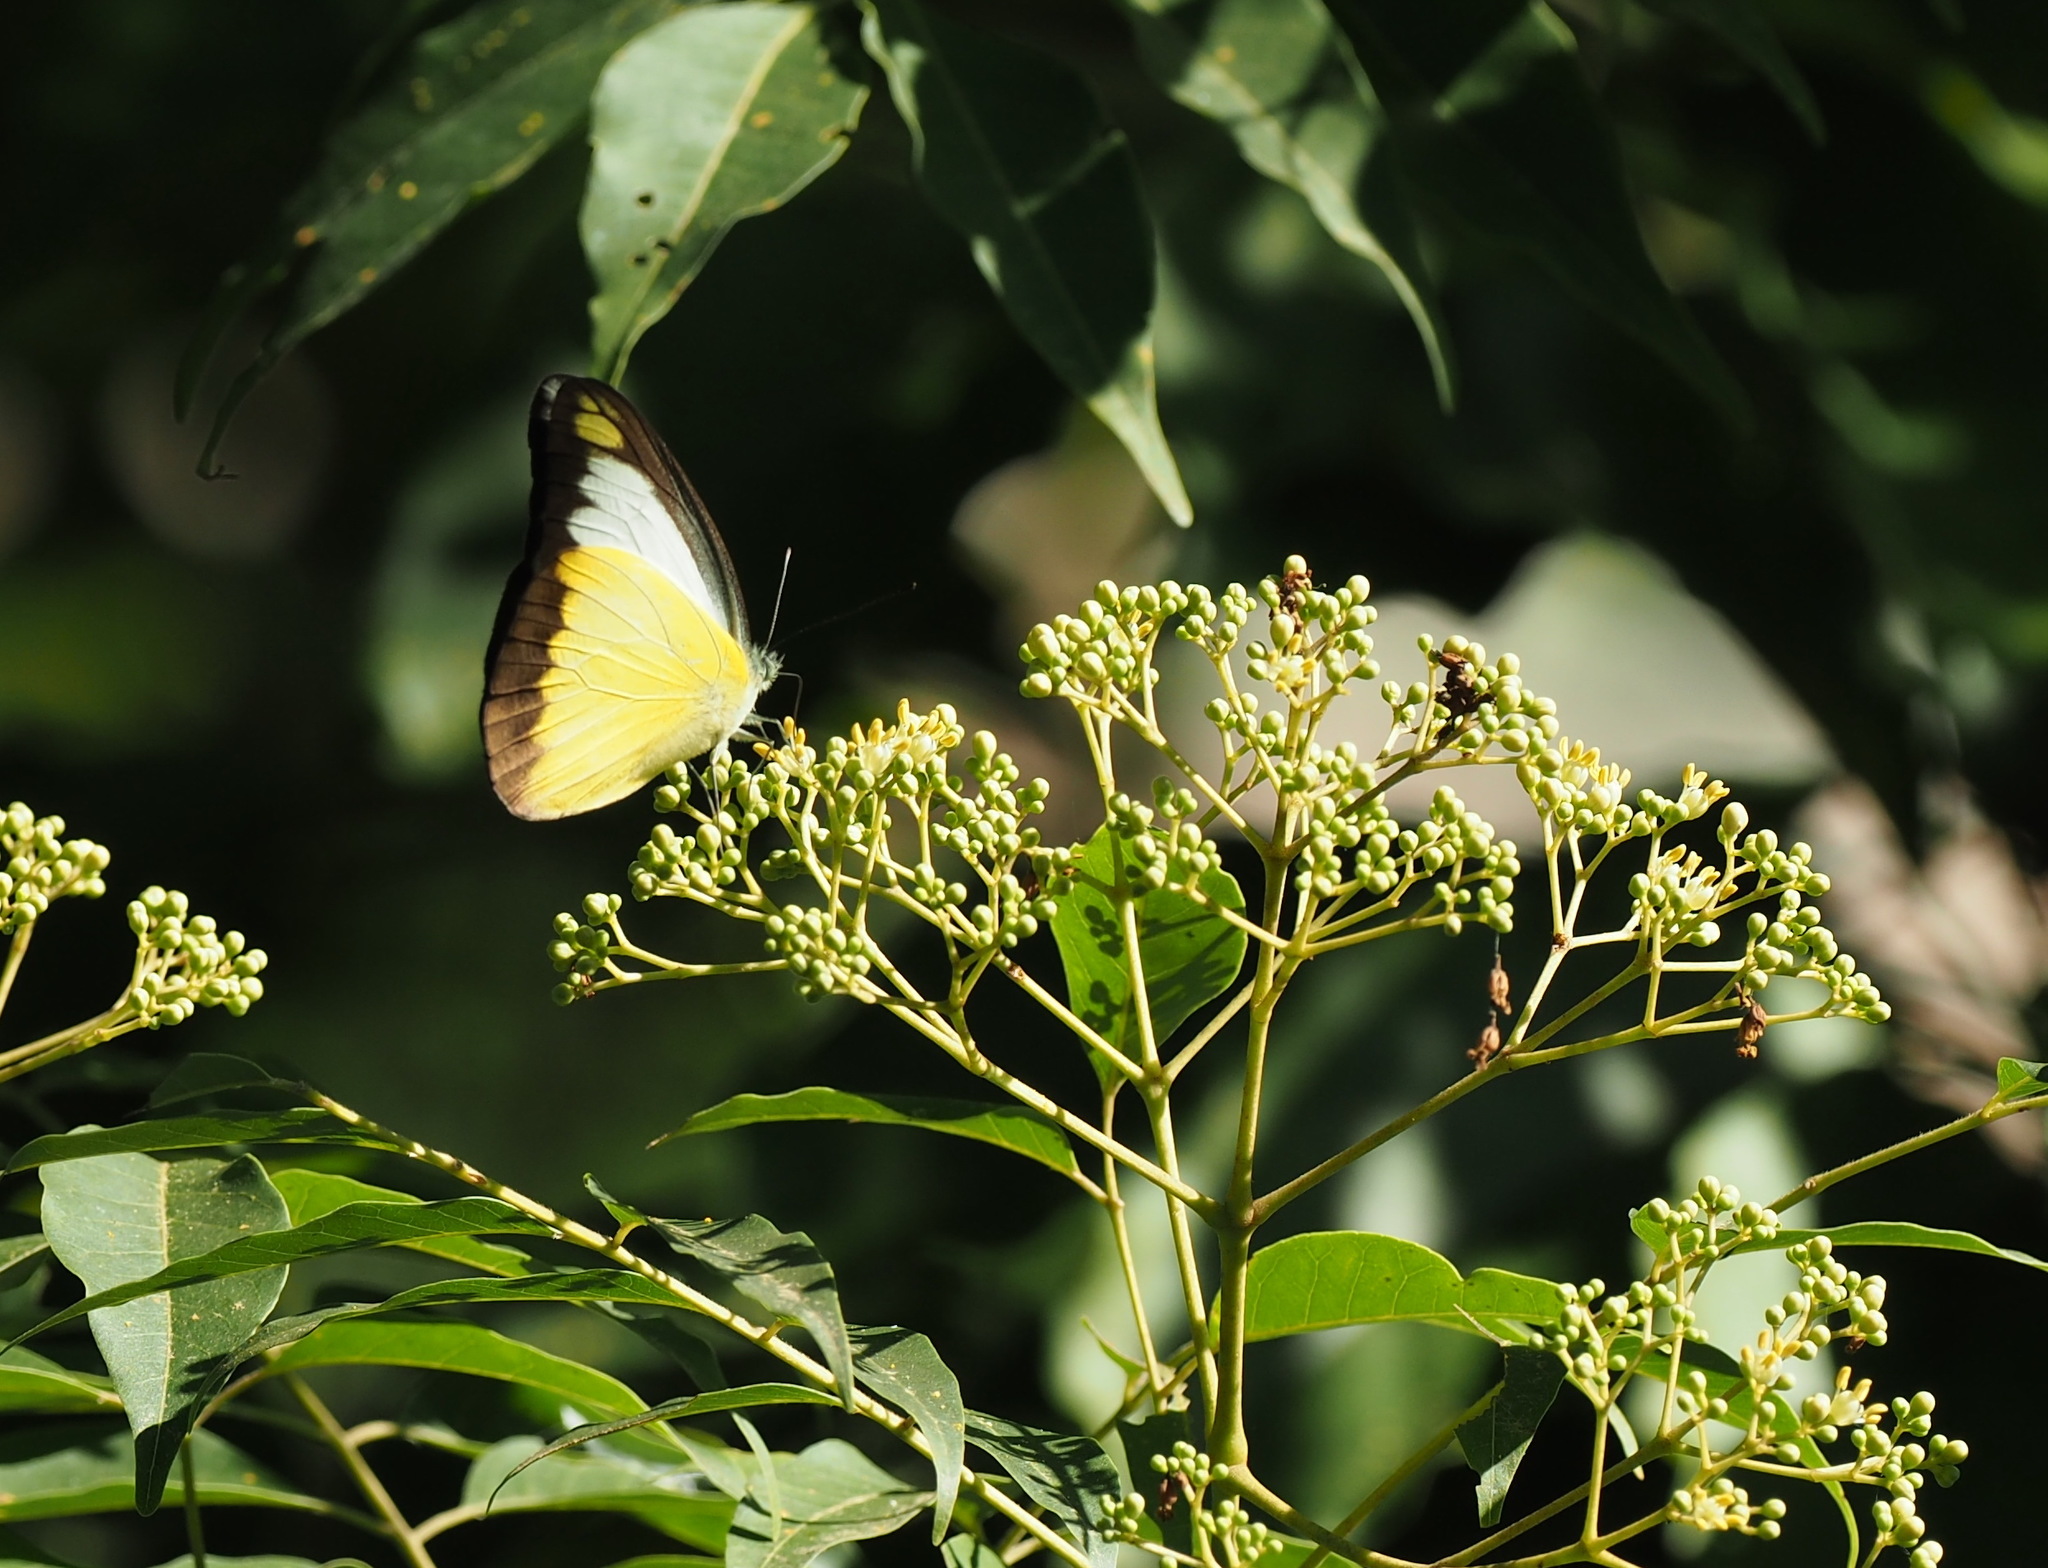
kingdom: Animalia
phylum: Arthropoda
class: Insecta
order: Lepidoptera
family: Pieridae
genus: Appias
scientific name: Appias lyncida
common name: Chocolate albatross
